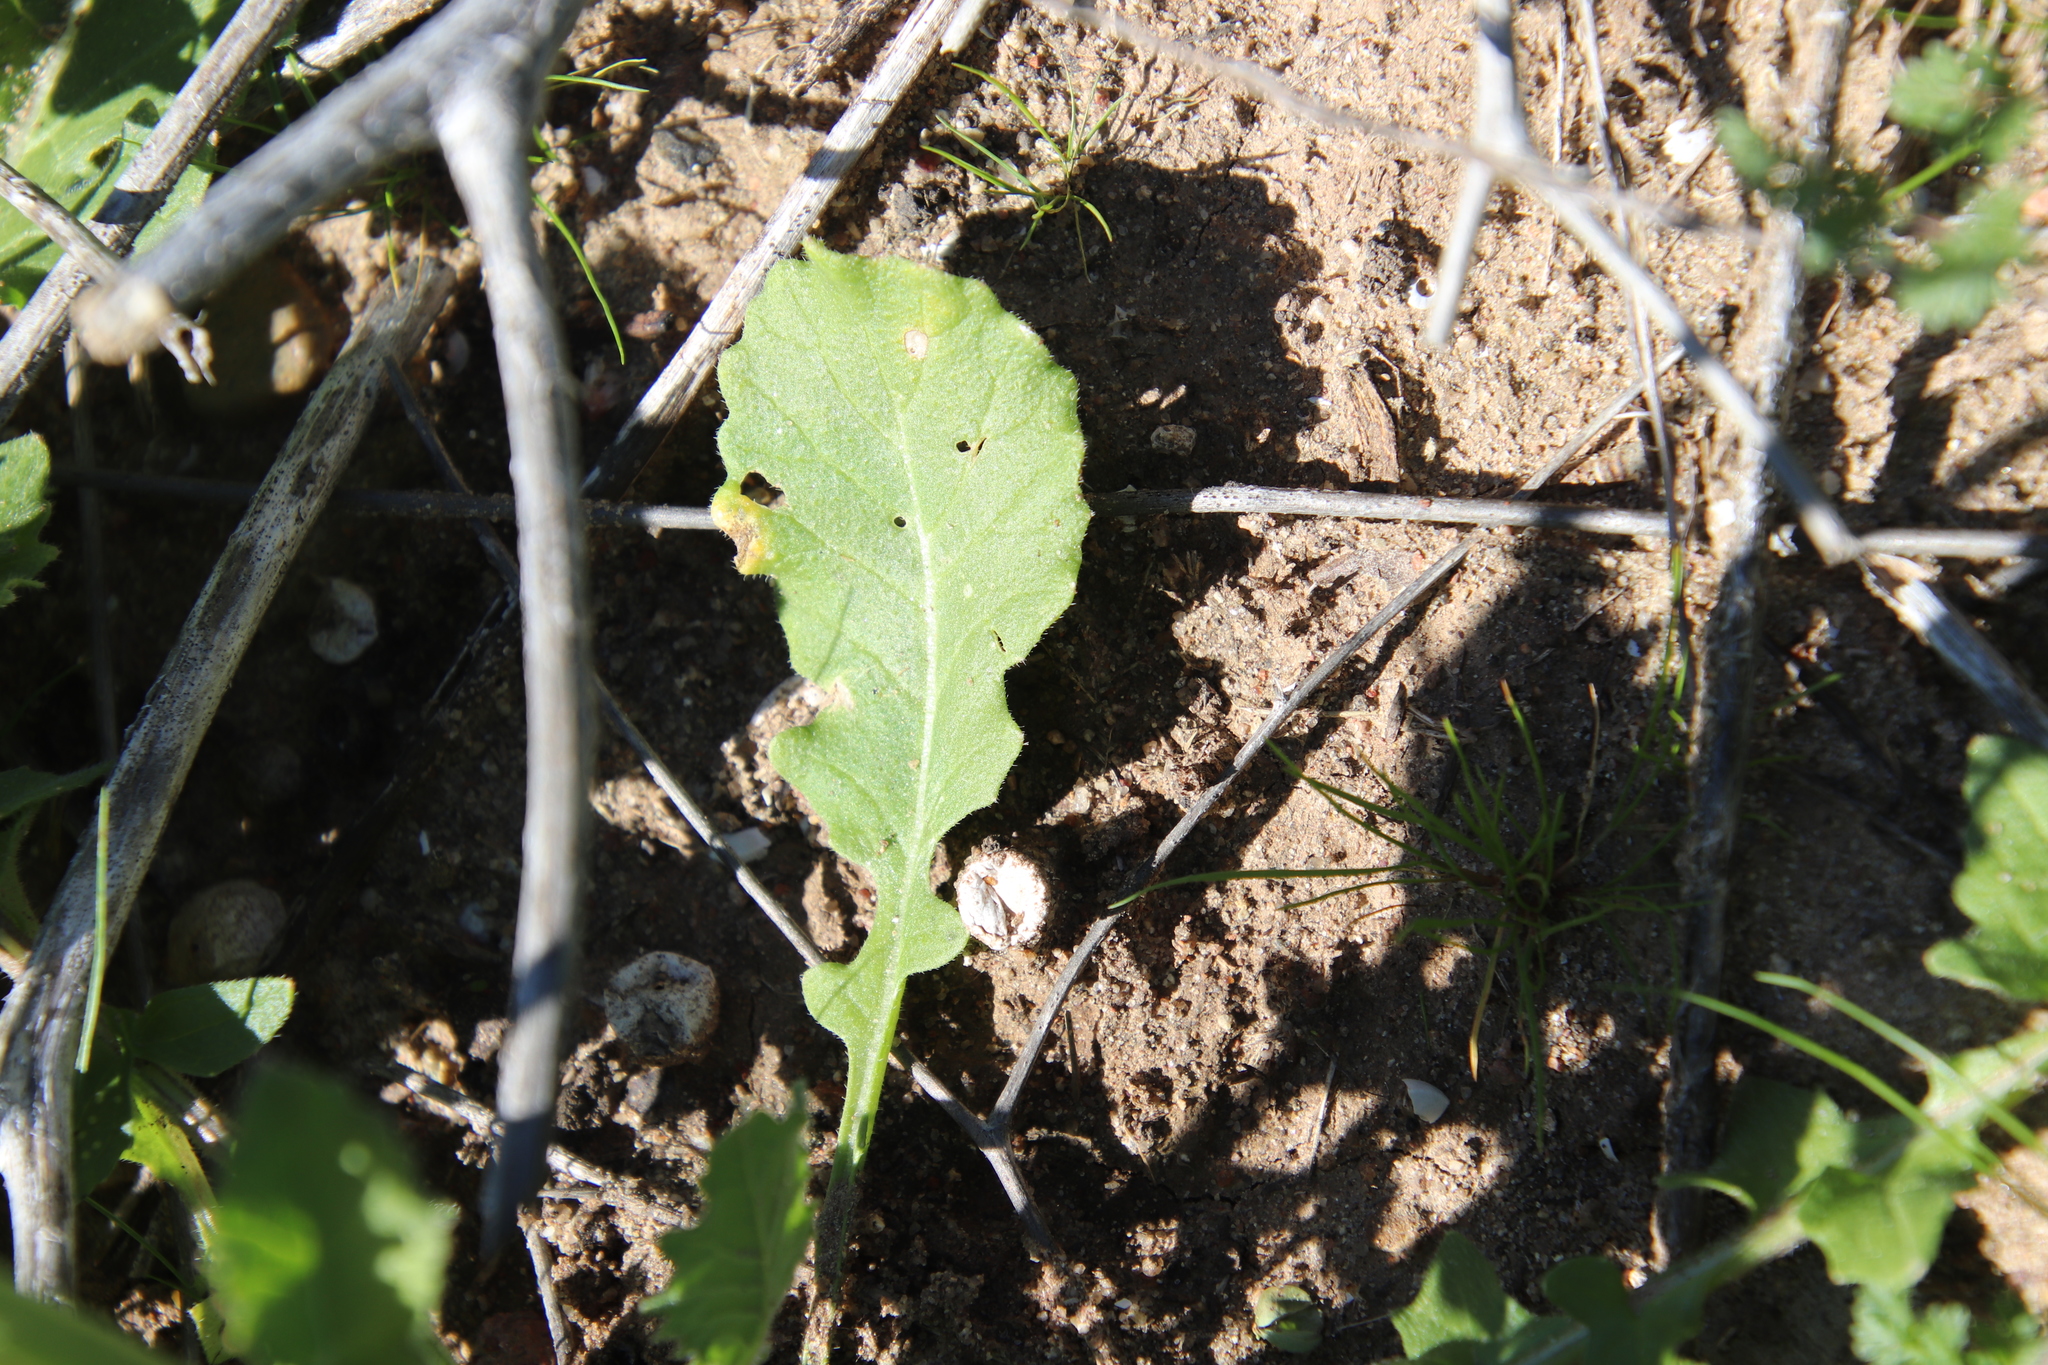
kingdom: Plantae
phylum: Tracheophyta
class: Magnoliopsida
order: Brassicales
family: Brassicaceae
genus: Hirschfeldia
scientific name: Hirschfeldia incana
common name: Hoary mustard
